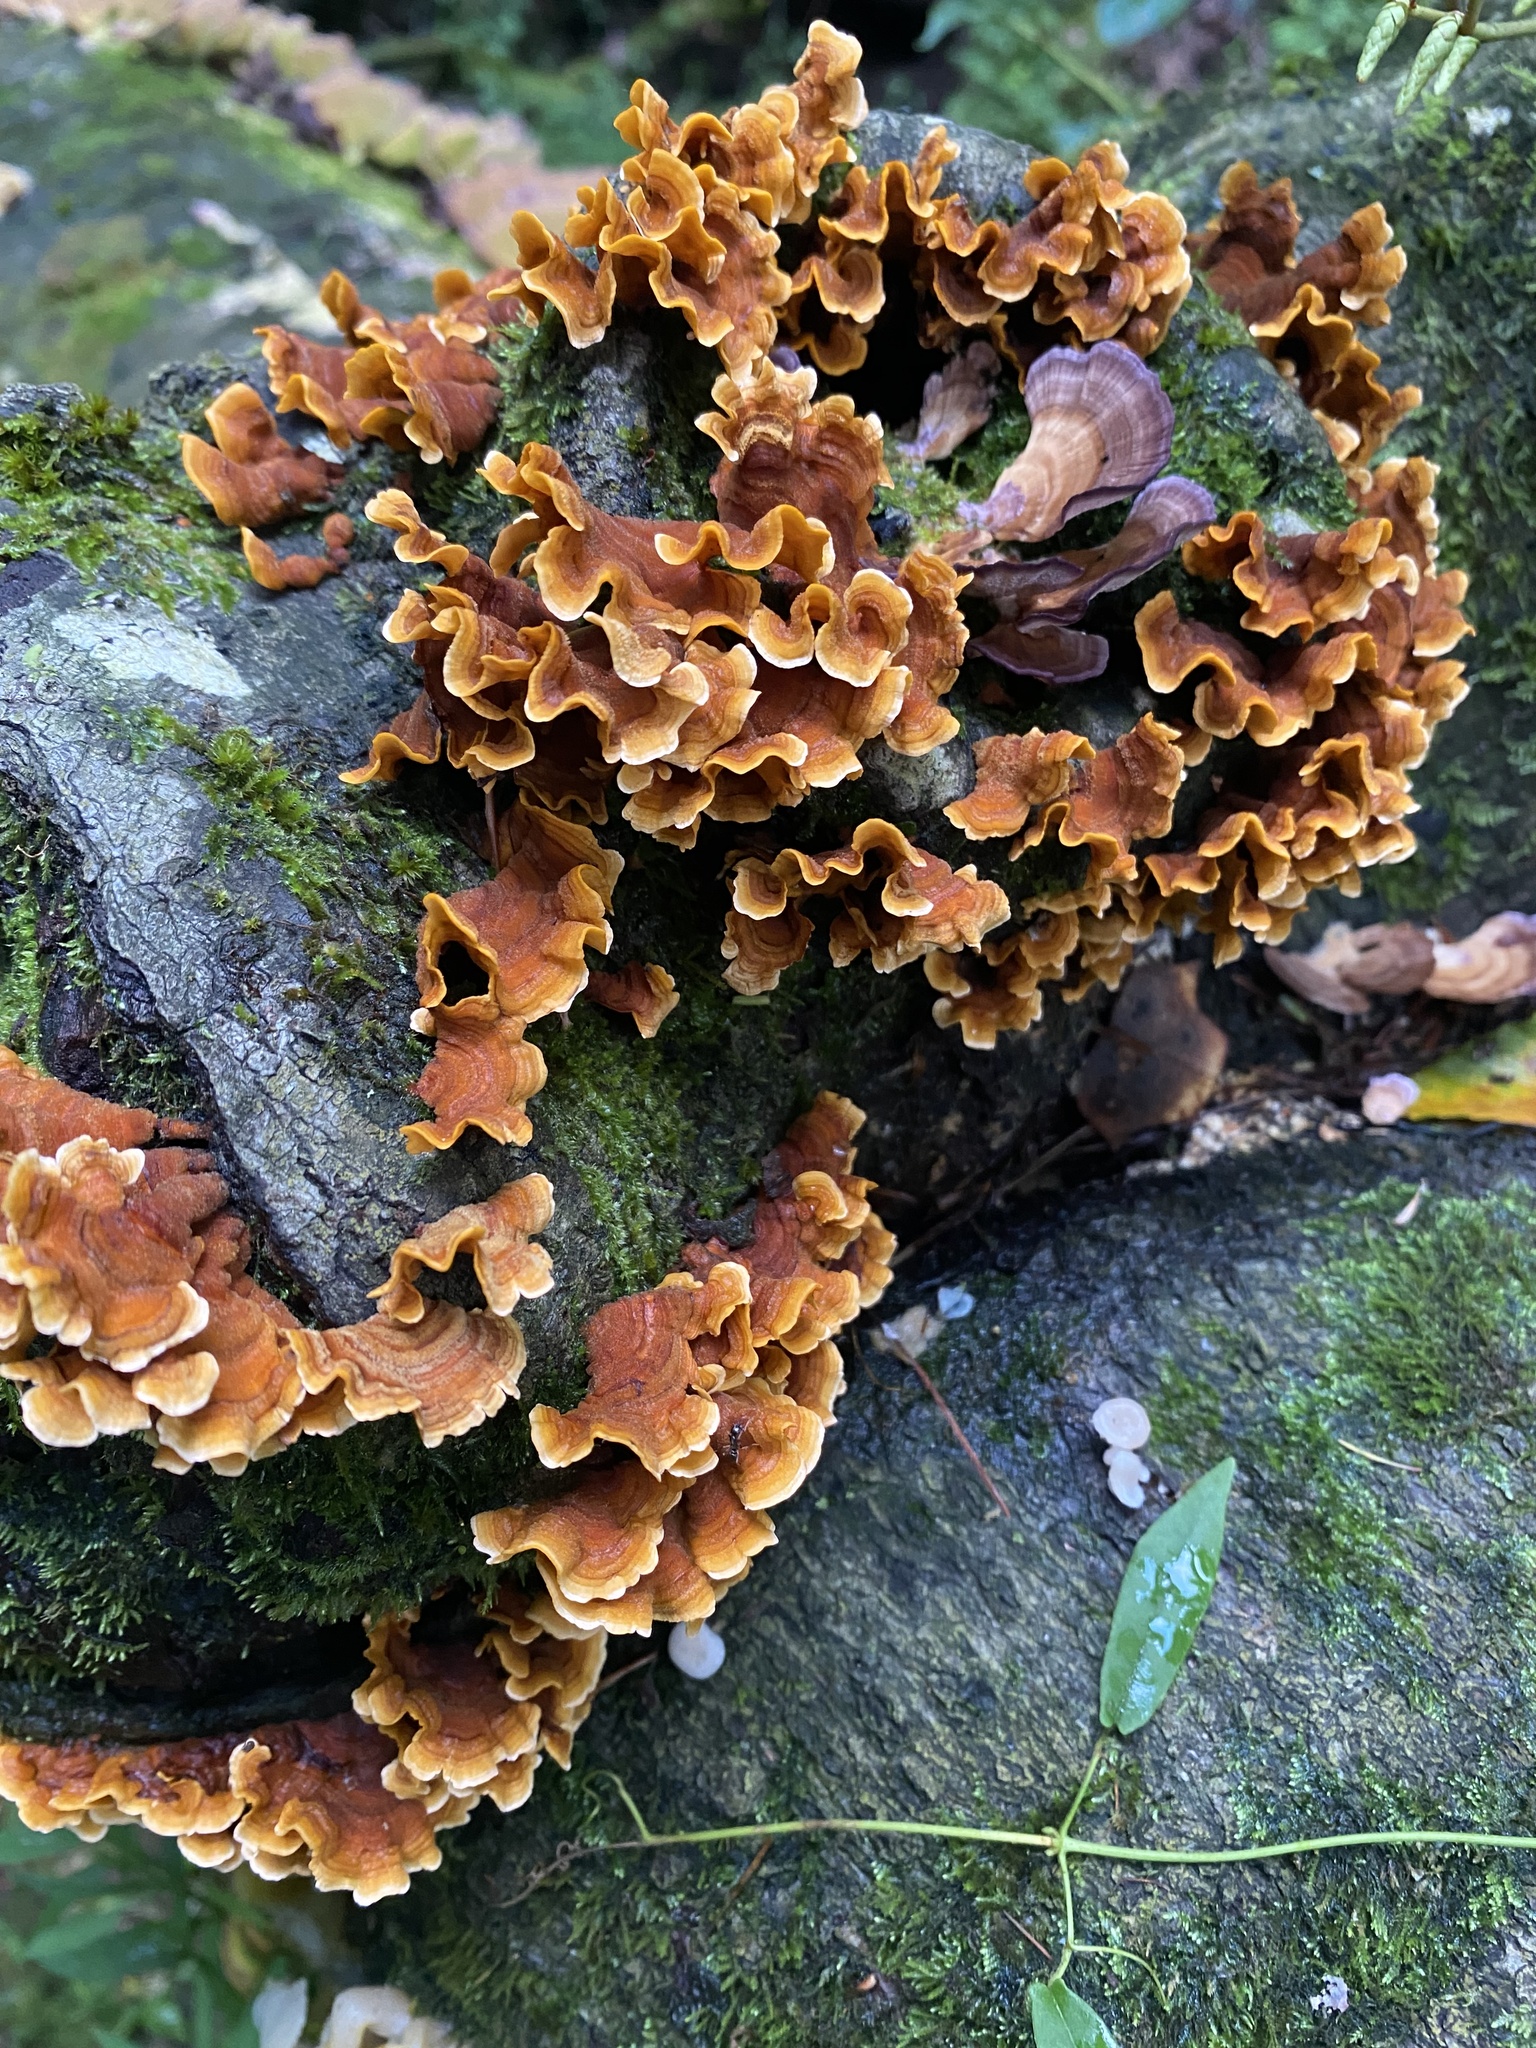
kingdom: Fungi
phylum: Basidiomycota
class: Agaricomycetes
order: Russulales
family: Stereaceae
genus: Stereum
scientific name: Stereum complicatum
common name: Crowded parchment
